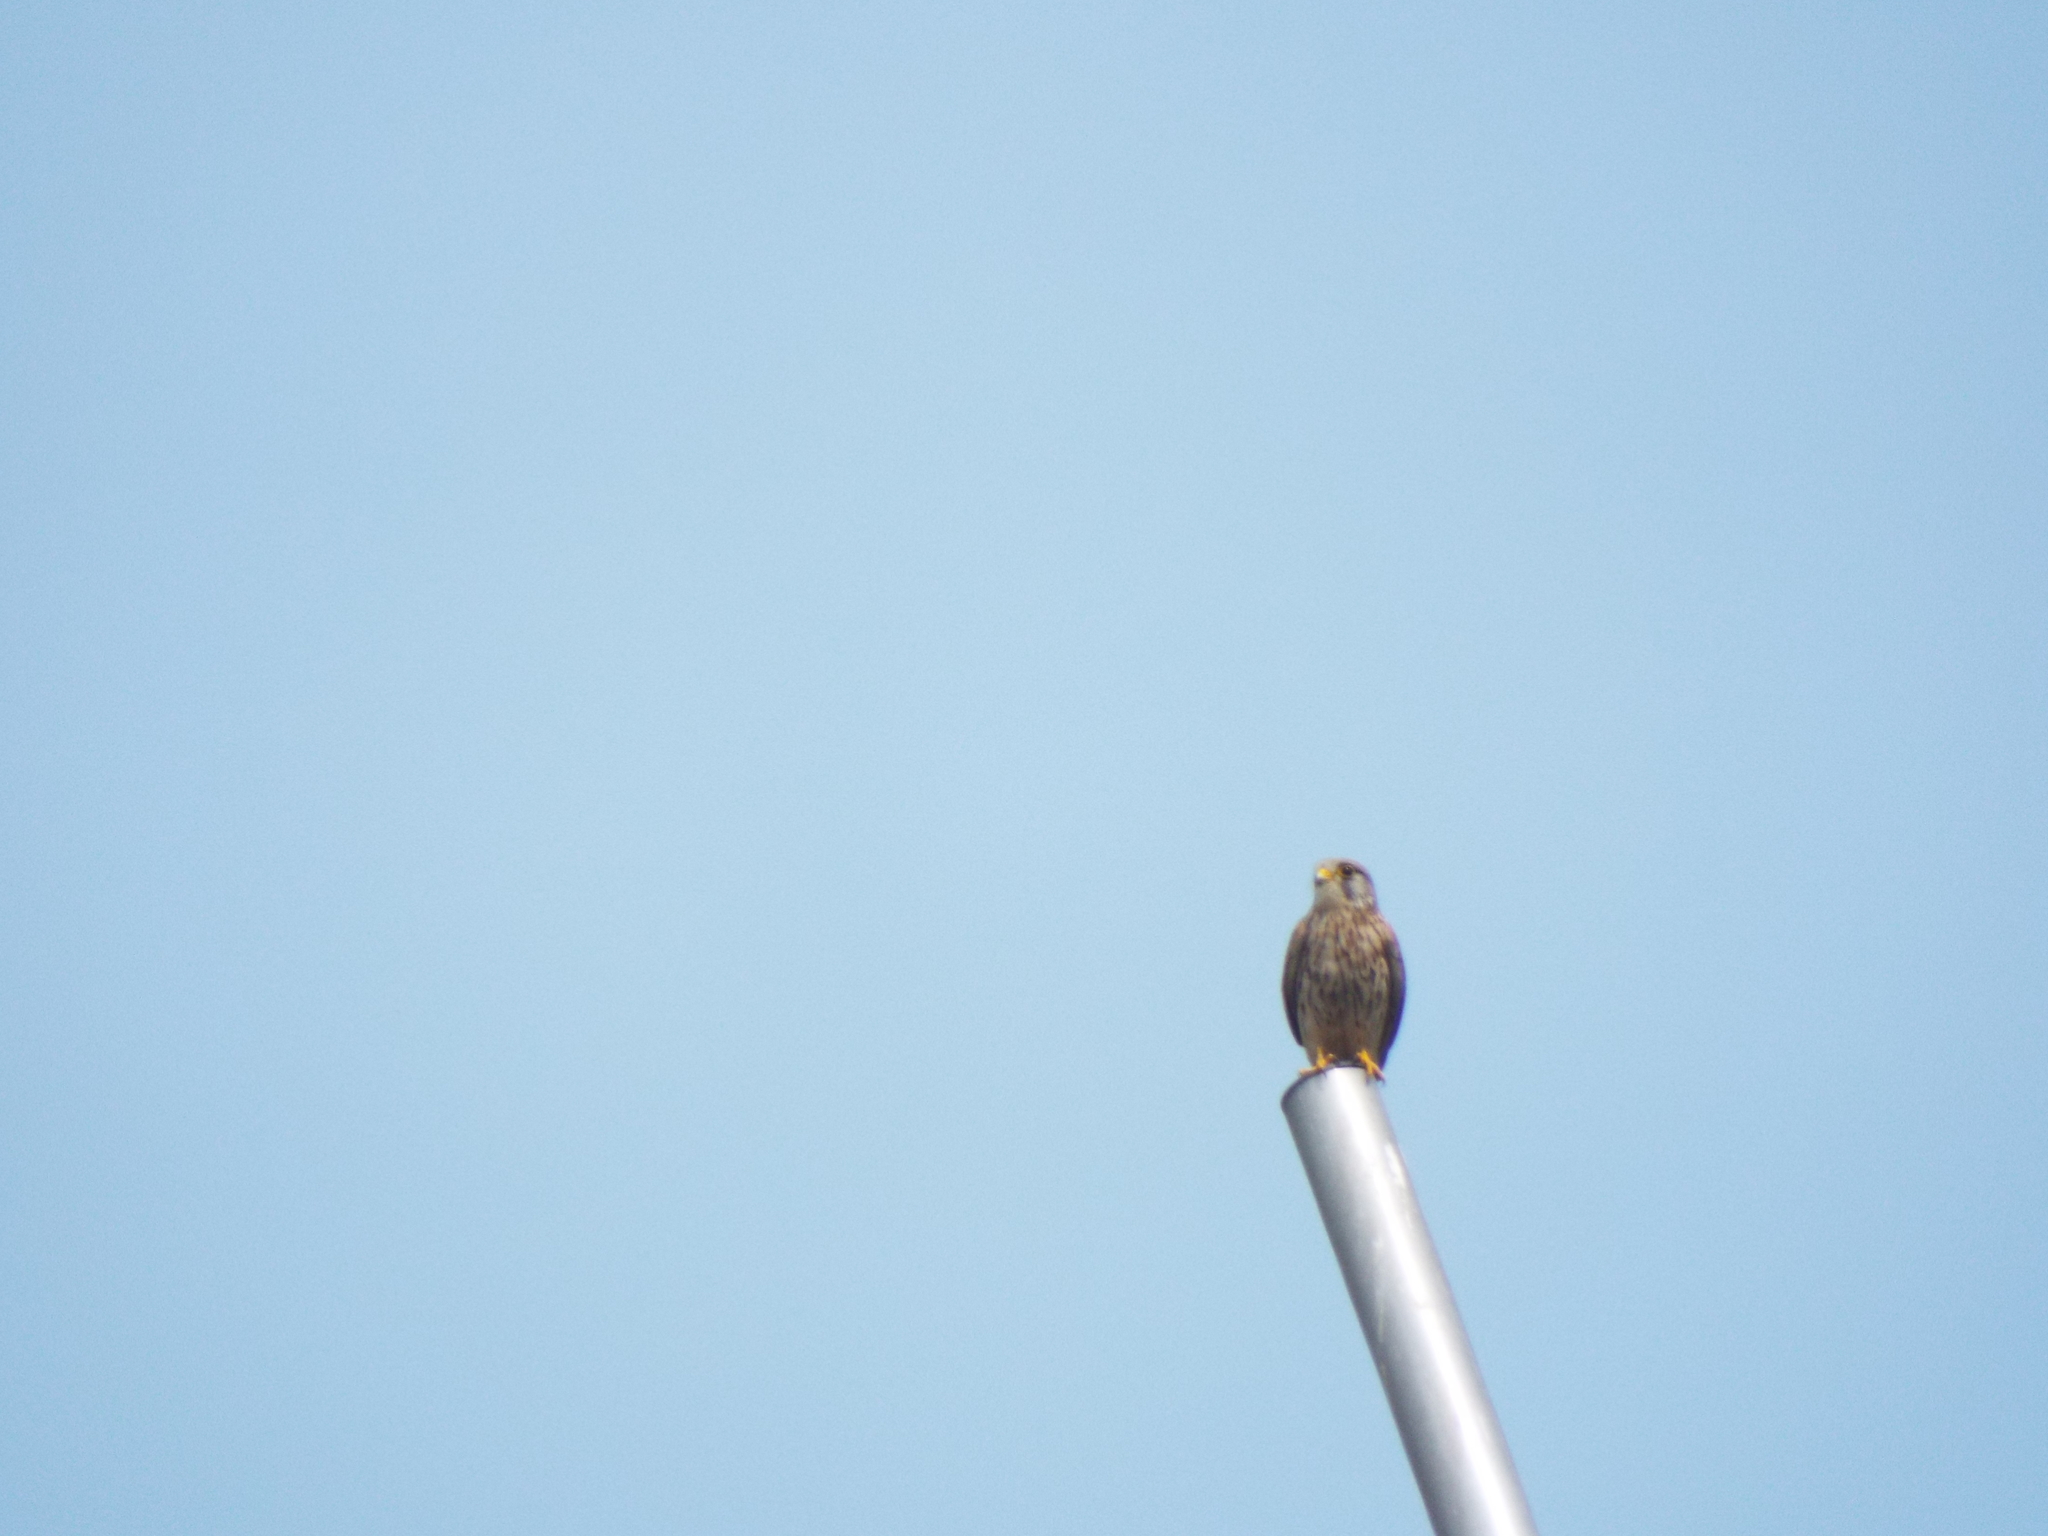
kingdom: Animalia
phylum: Chordata
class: Aves
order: Falconiformes
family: Falconidae
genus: Falco
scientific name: Falco tinnunculus
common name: Common kestrel
